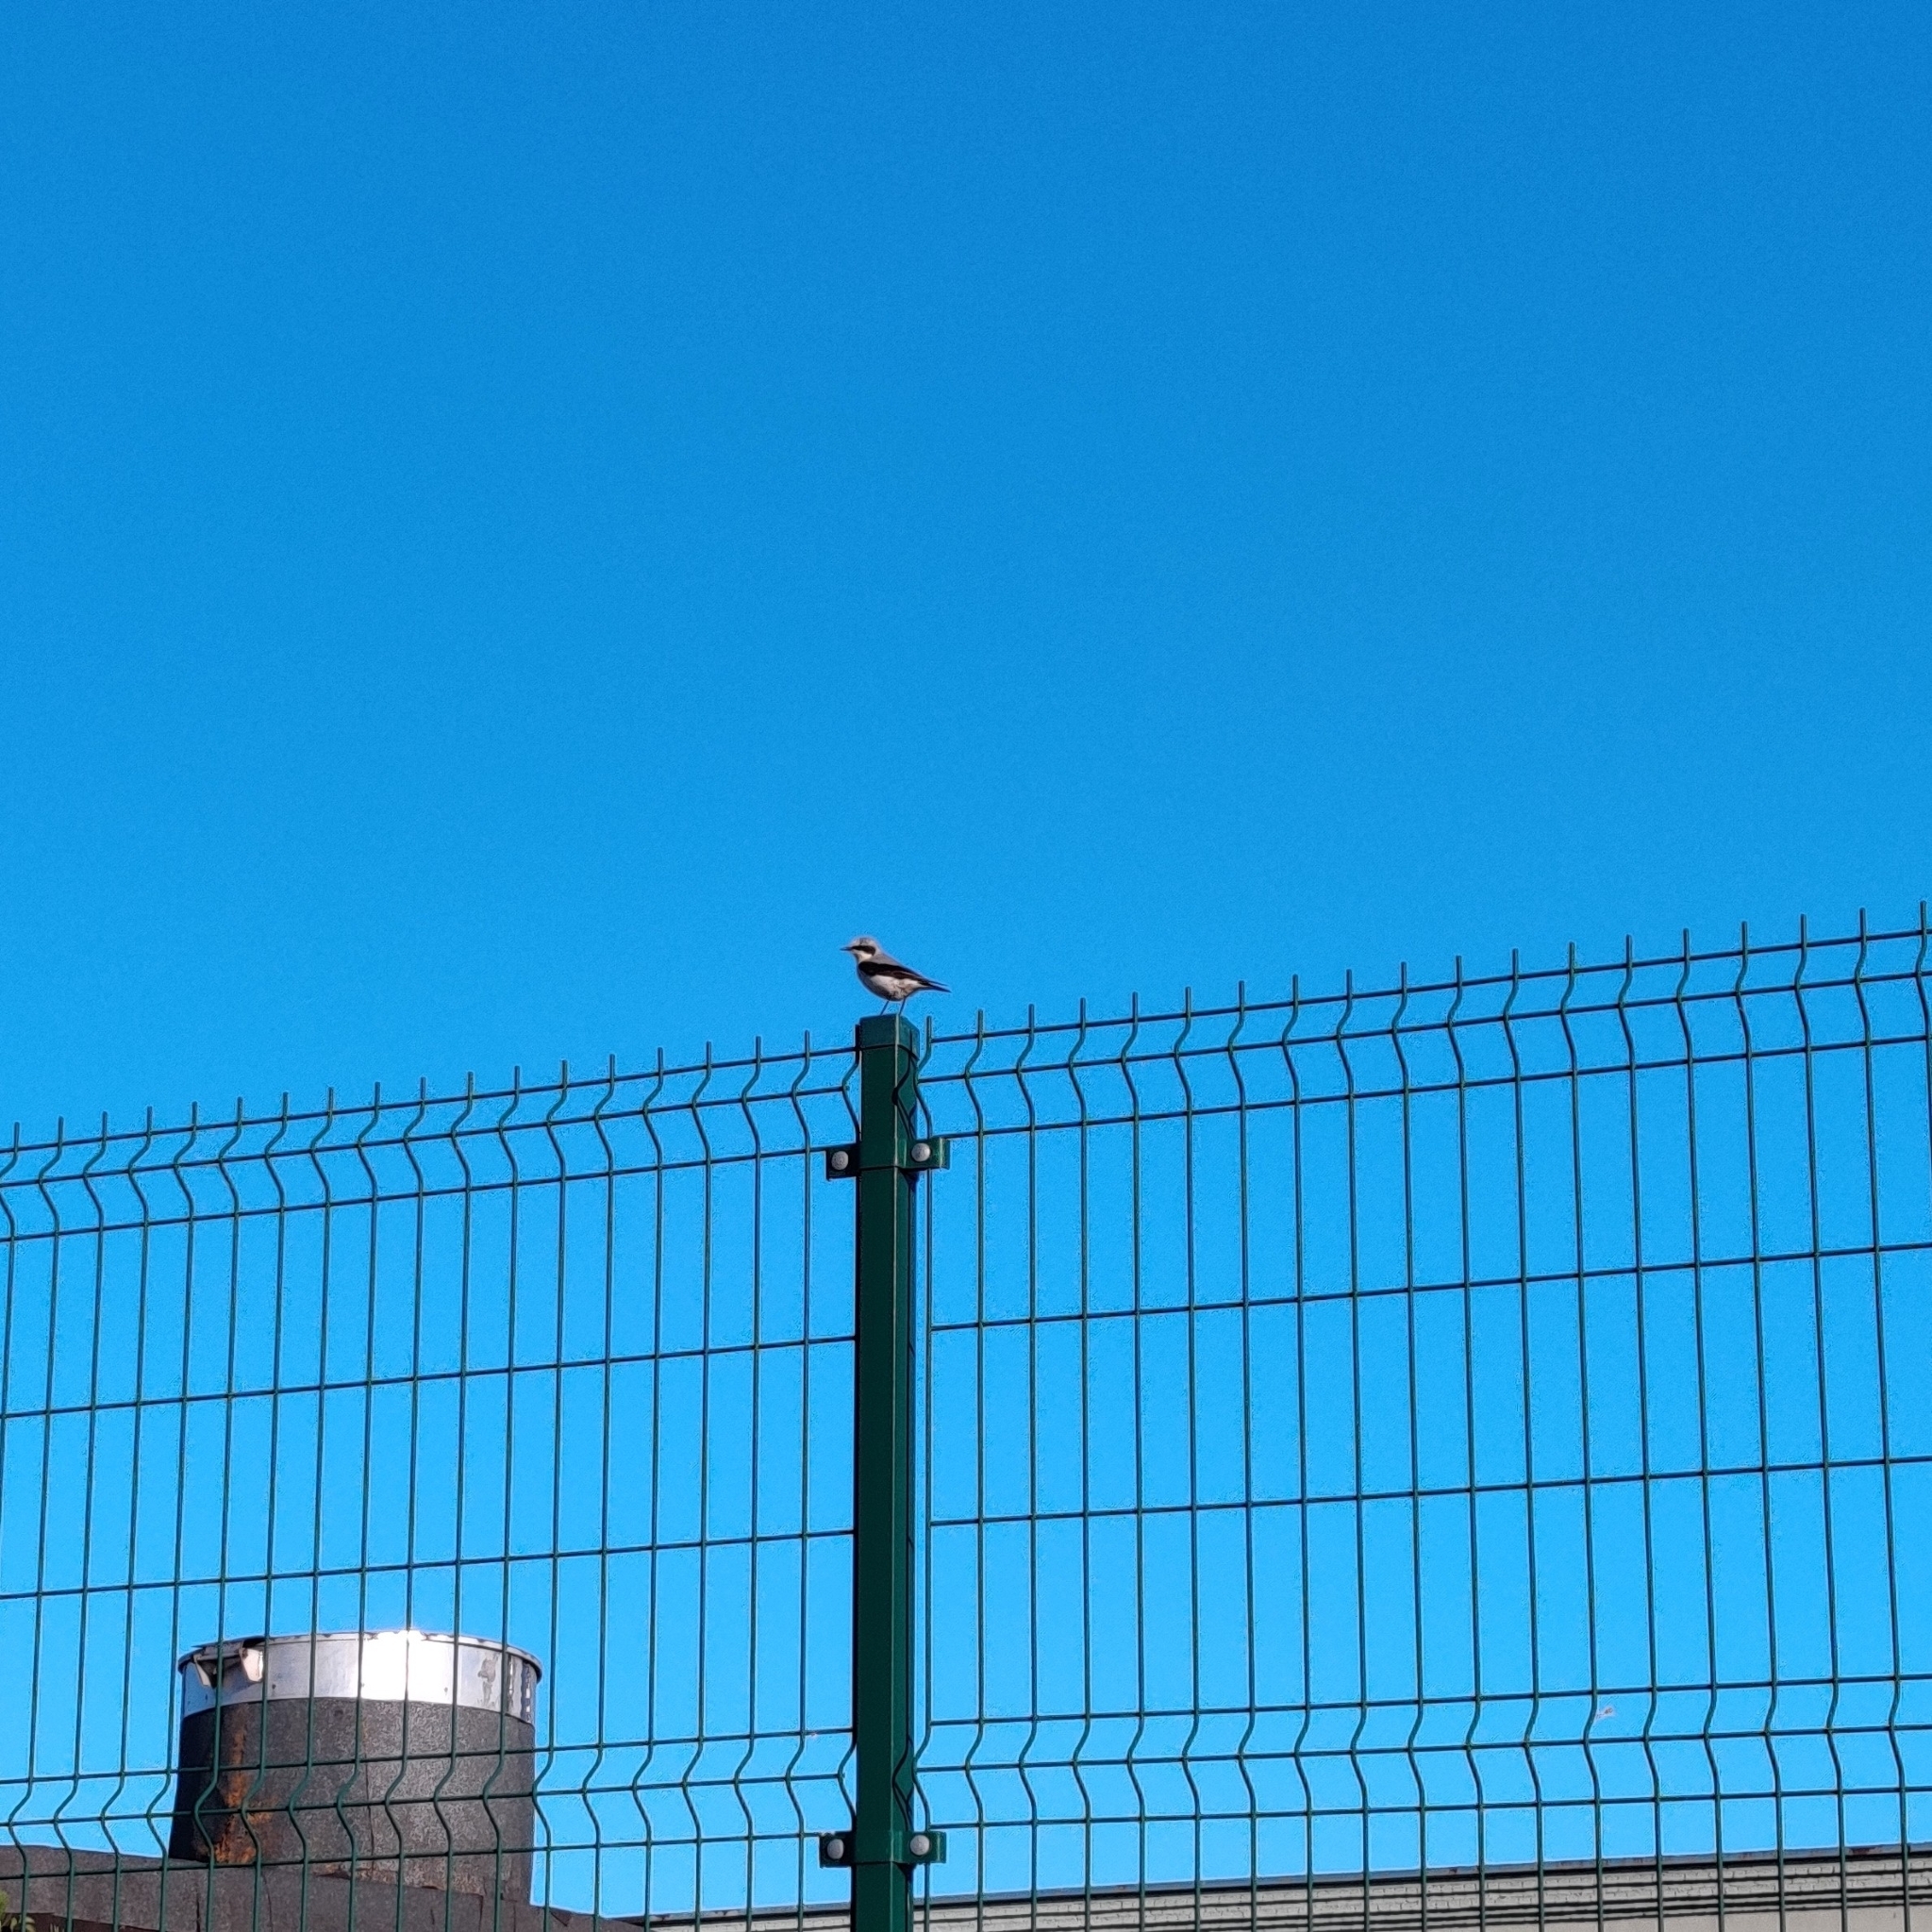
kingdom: Animalia
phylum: Chordata
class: Aves
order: Passeriformes
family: Muscicapidae
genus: Oenanthe
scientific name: Oenanthe oenanthe
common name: Northern wheatear
